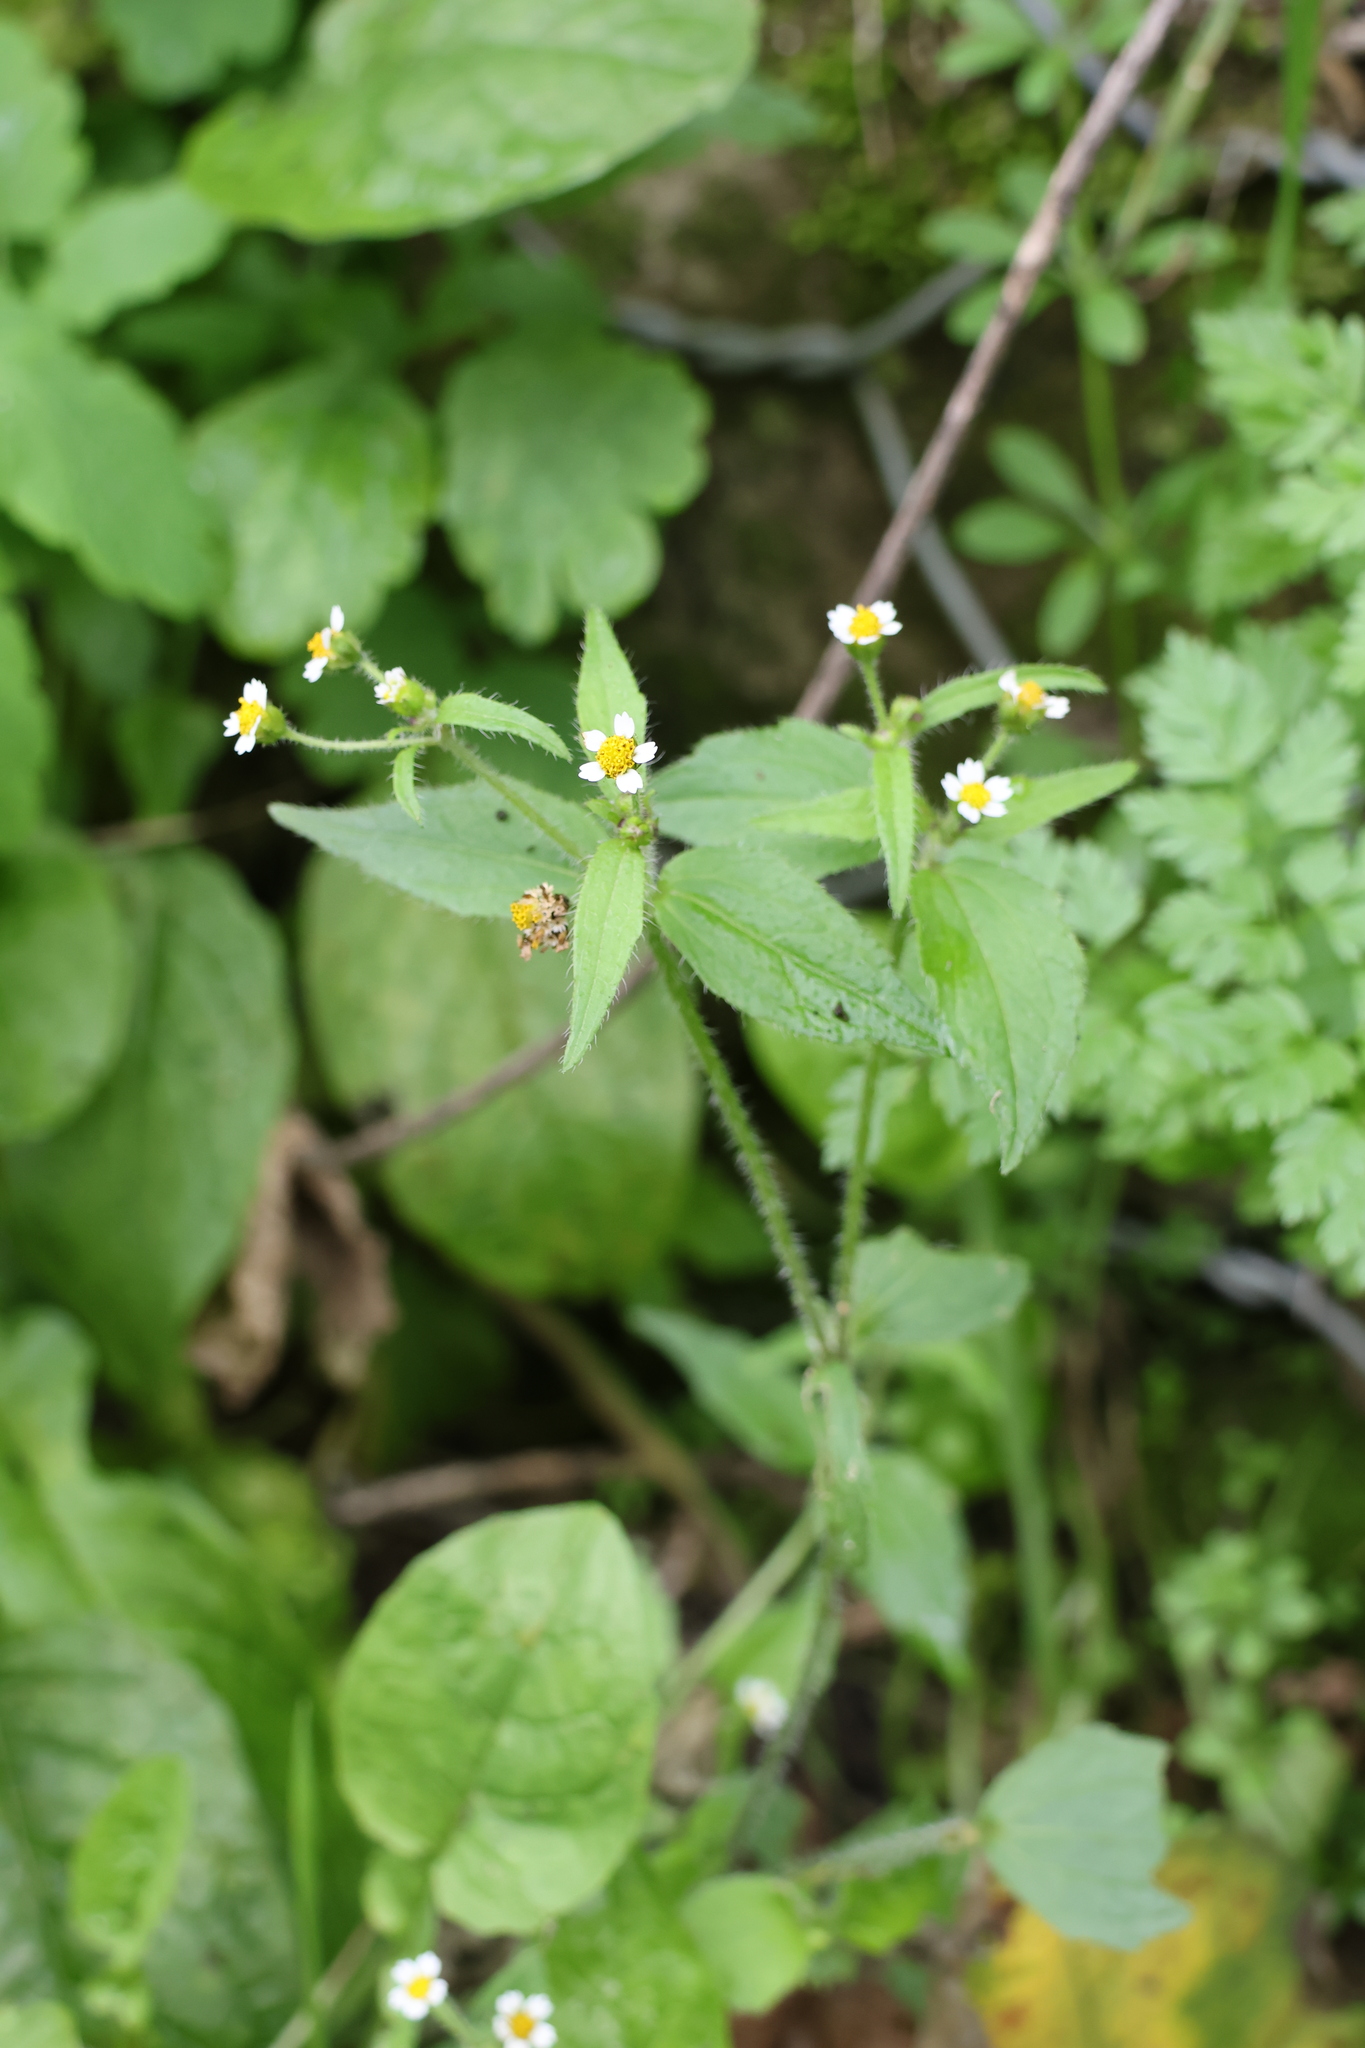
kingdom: Plantae
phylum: Tracheophyta
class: Magnoliopsida
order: Asterales
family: Asteraceae
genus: Galinsoga
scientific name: Galinsoga quadriradiata
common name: Shaggy soldier
